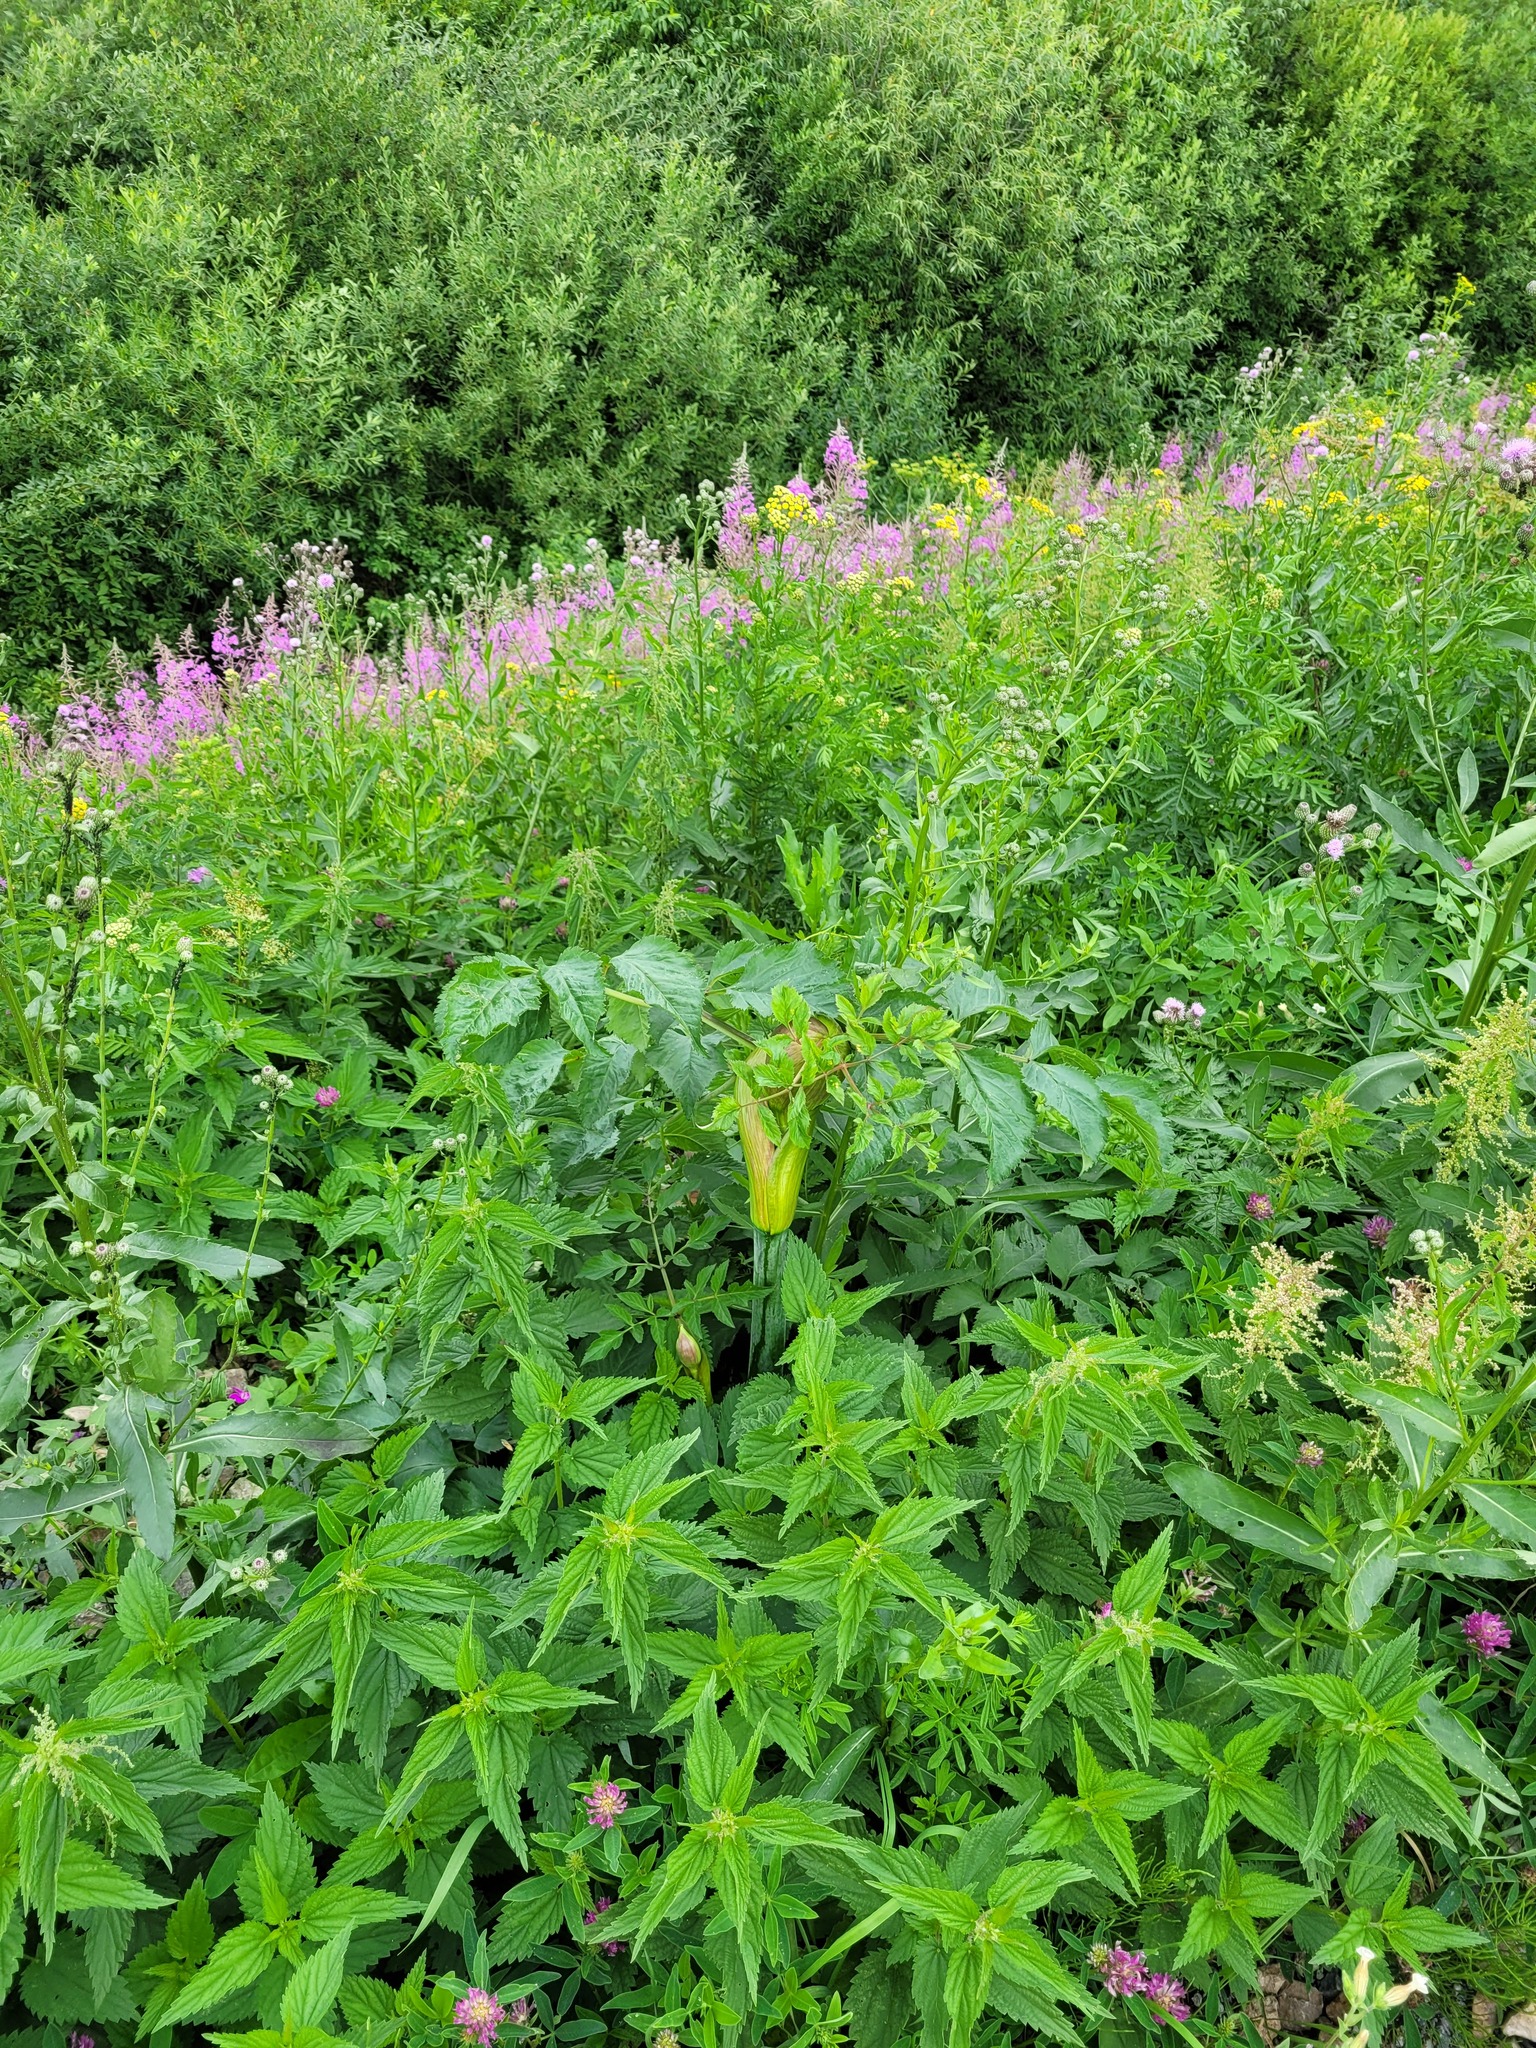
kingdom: Plantae
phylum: Tracheophyta
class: Magnoliopsida
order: Apiales
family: Apiaceae
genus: Angelica
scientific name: Angelica sylvestris
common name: Wild angelica
